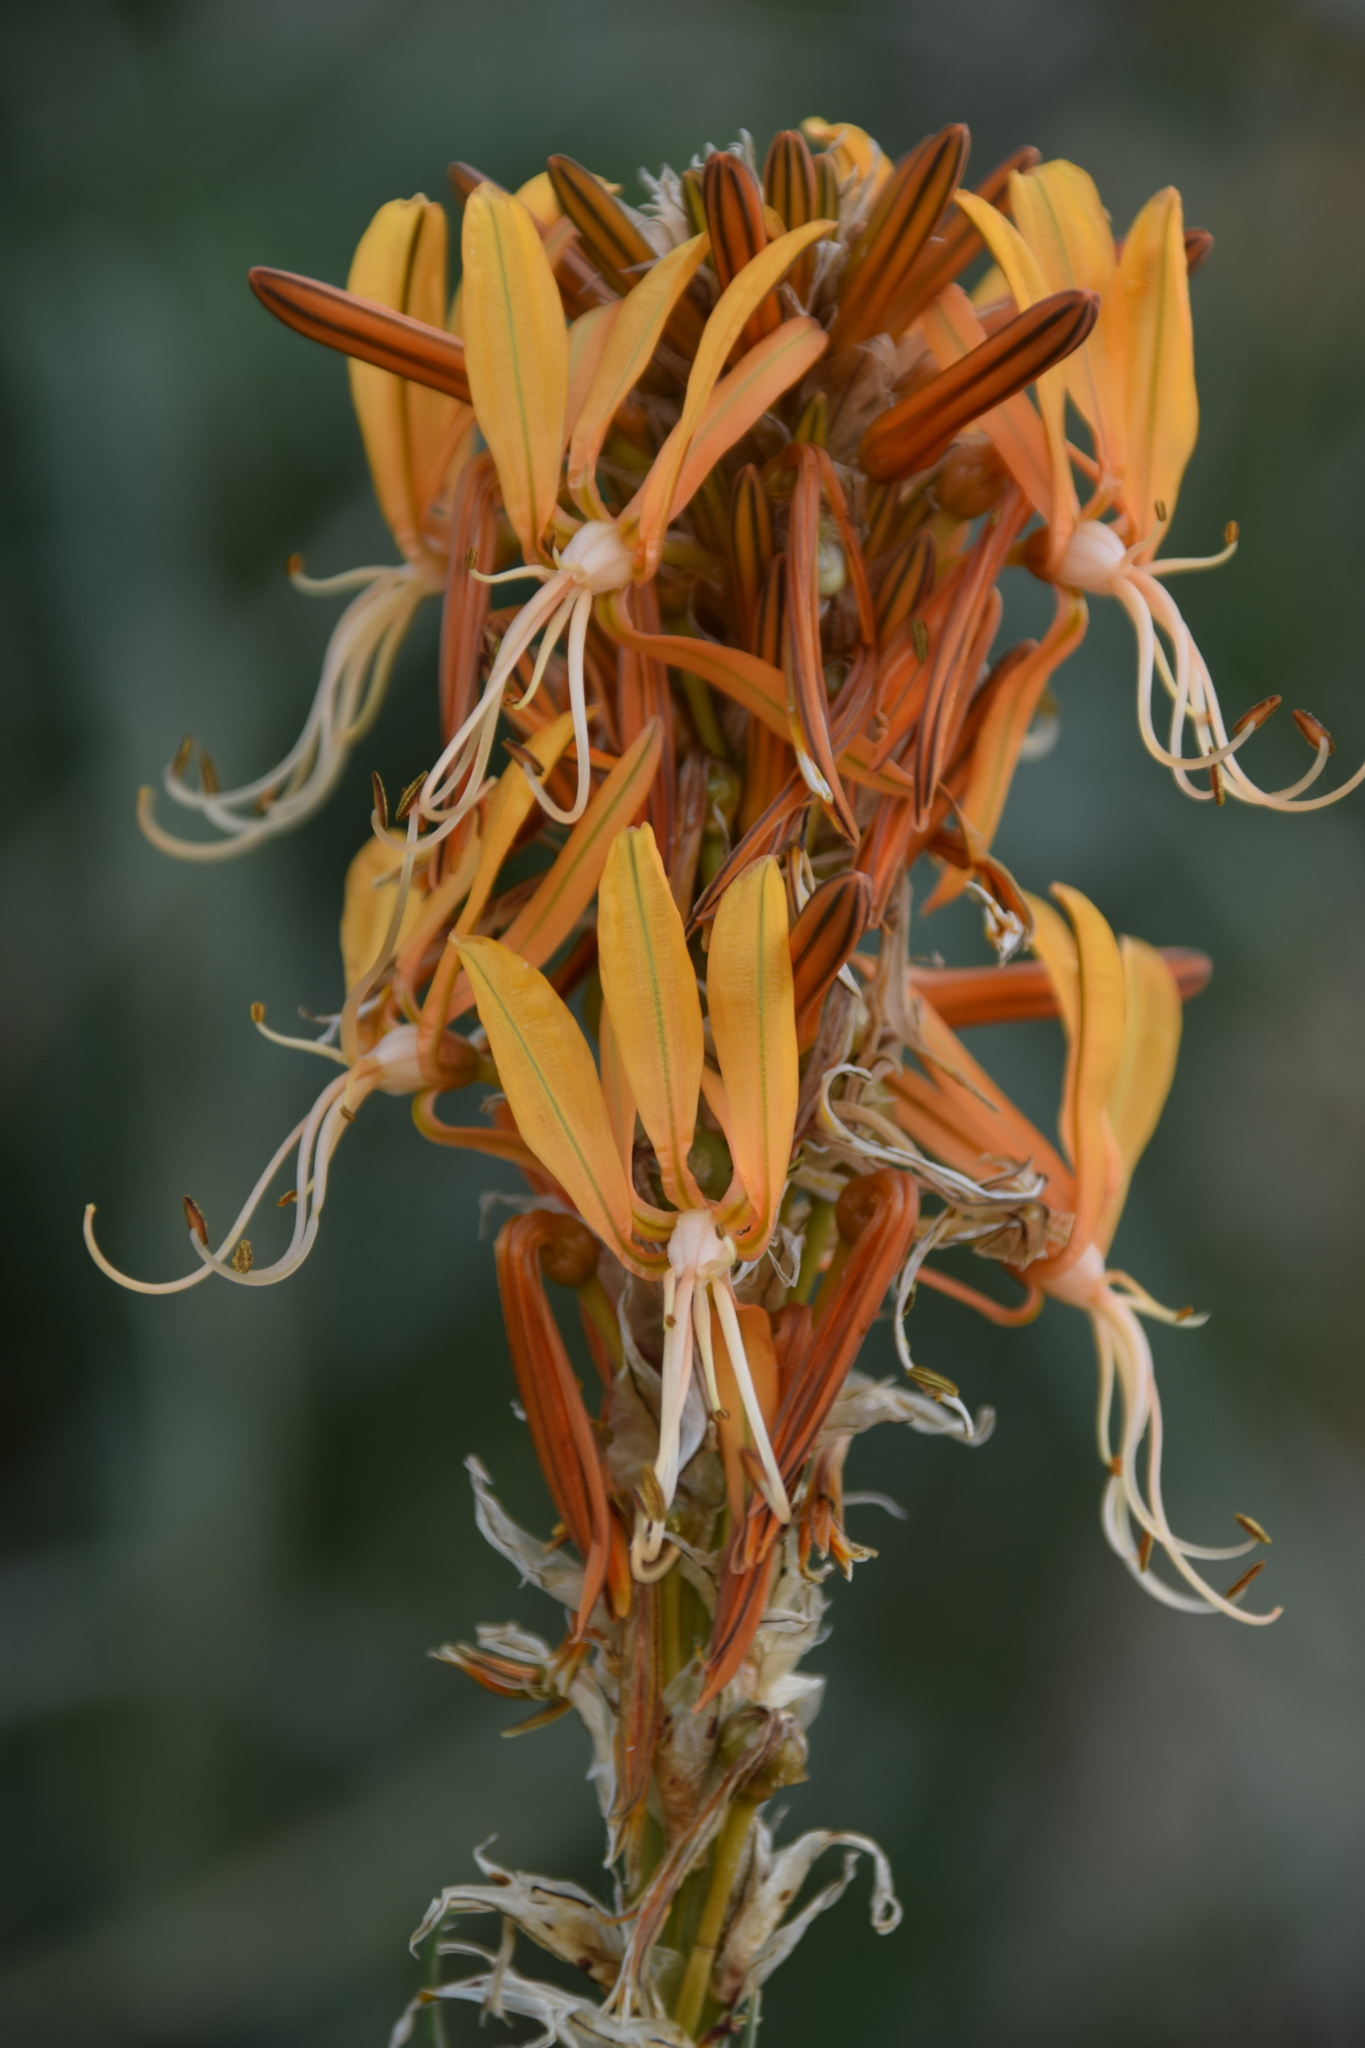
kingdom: Plantae
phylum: Tracheophyta
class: Liliopsida
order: Asparagales
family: Asphodelaceae
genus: Asphodeline
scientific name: Asphodeline lutea
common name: Yellow asphodel
